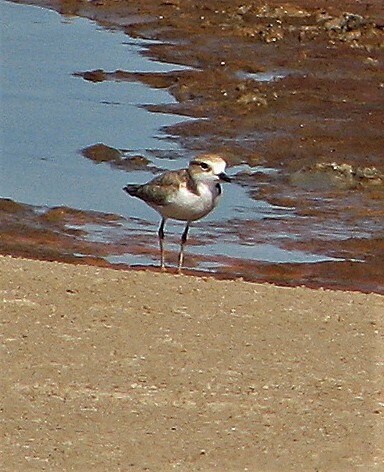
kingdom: Animalia
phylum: Chordata
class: Aves
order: Charadriiformes
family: Charadriidae
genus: Anarhynchus
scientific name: Anarhynchus
